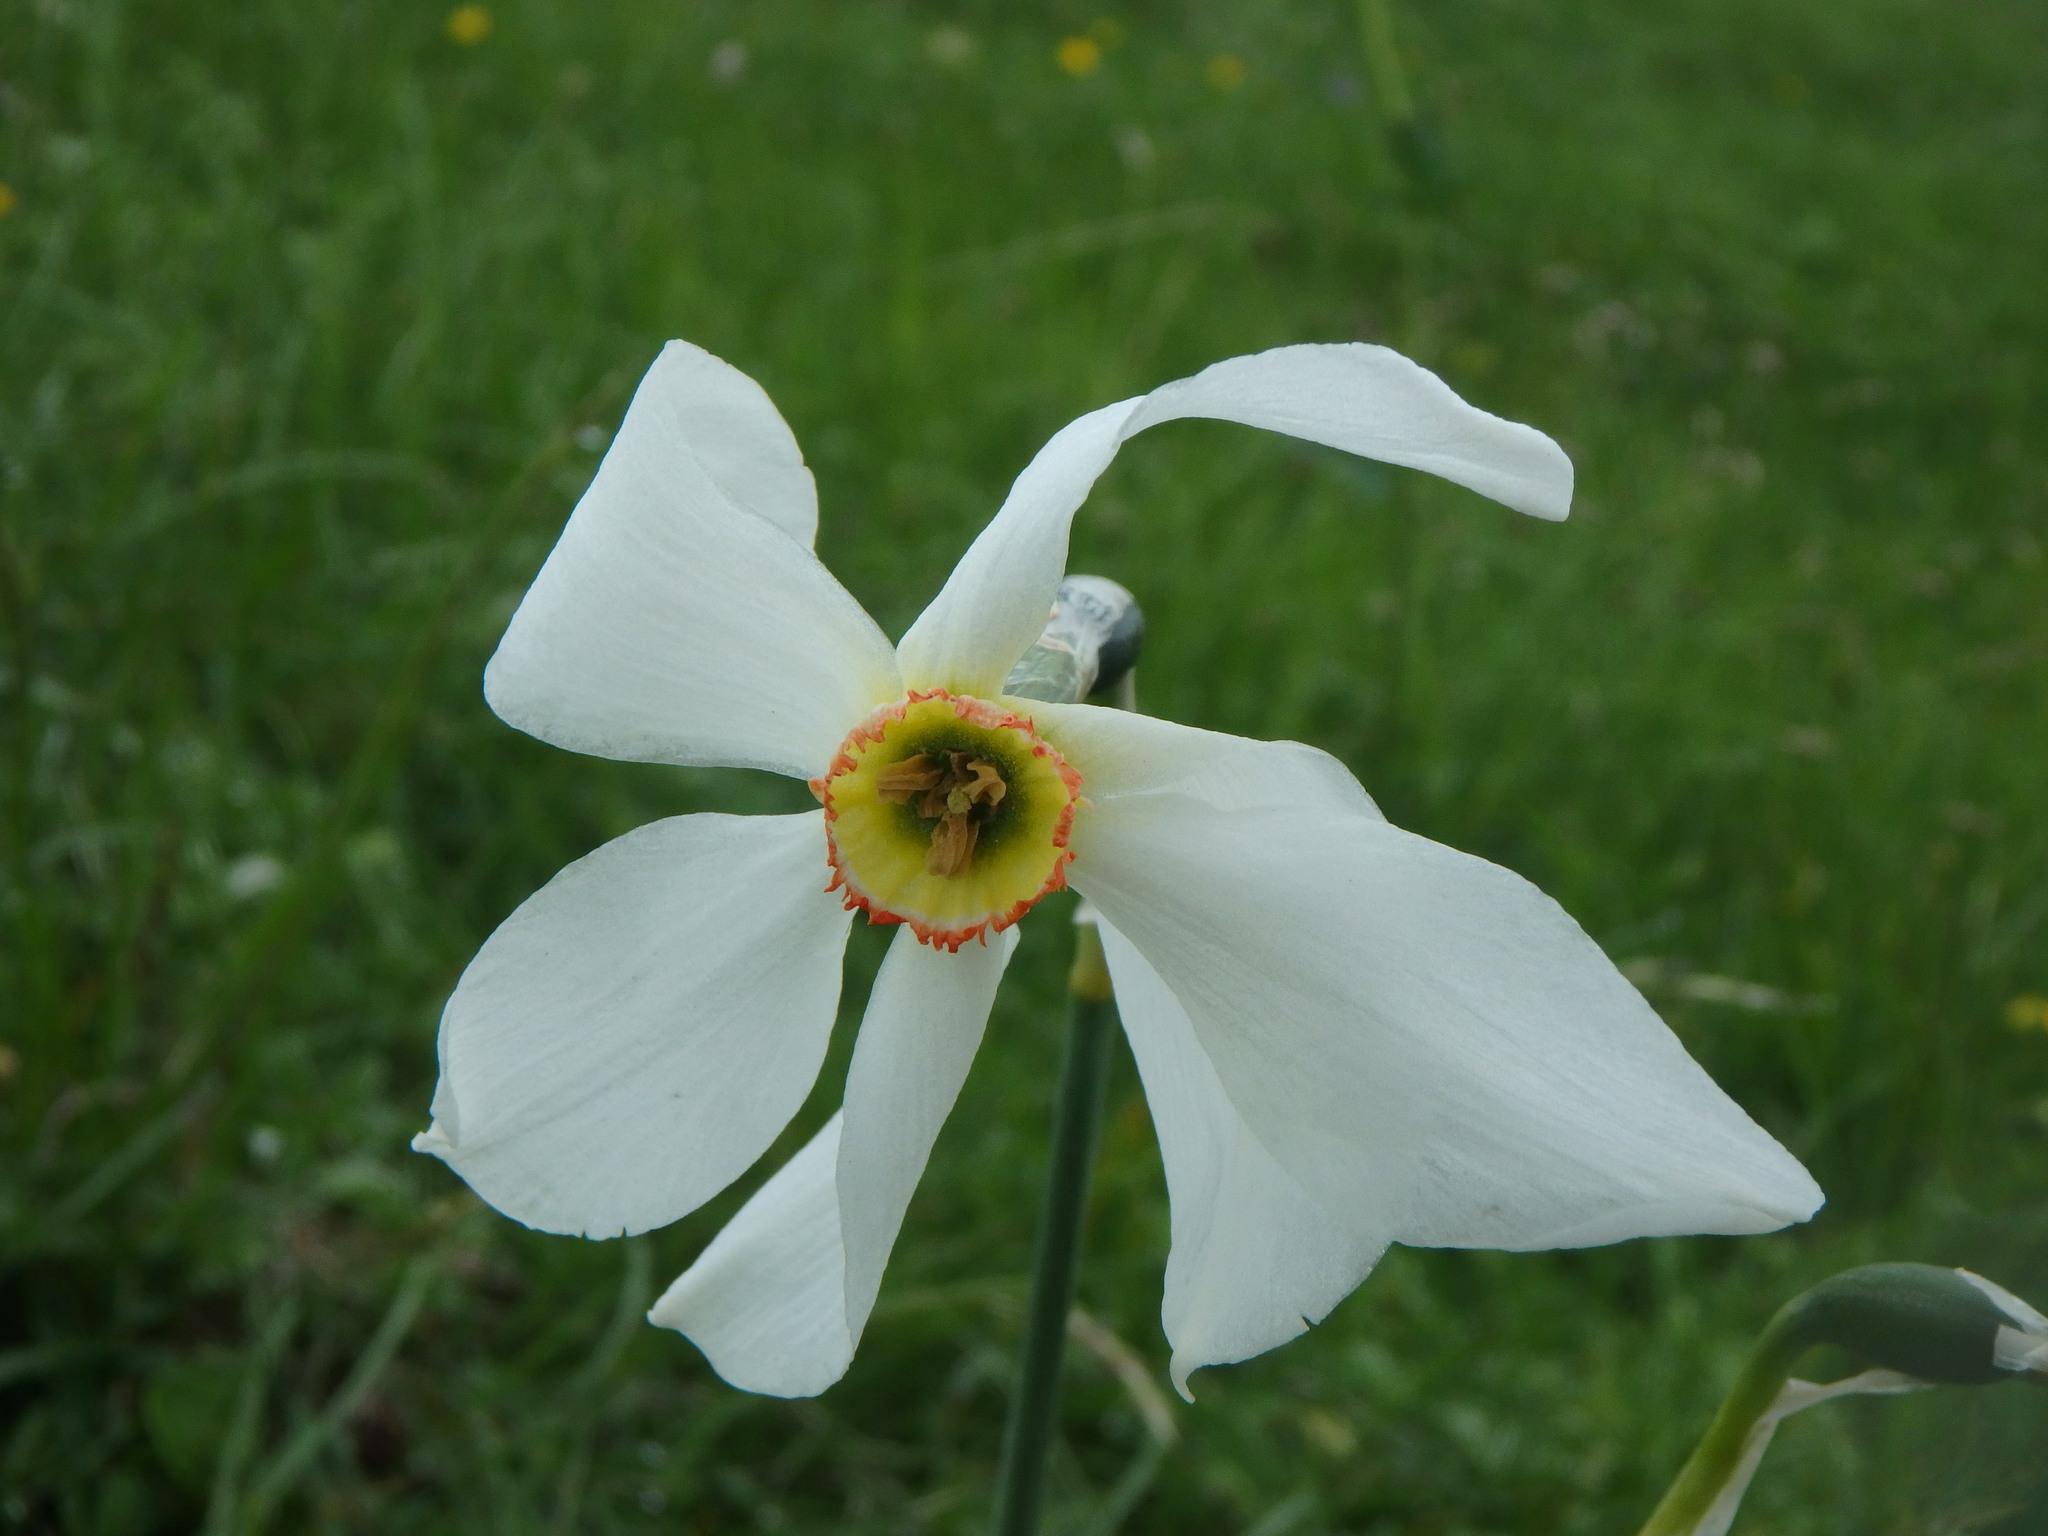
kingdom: Plantae
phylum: Tracheophyta
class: Liliopsida
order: Asparagales
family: Amaryllidaceae
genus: Narcissus
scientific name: Narcissus poeticus
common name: Pheasant's-eye daffodil
